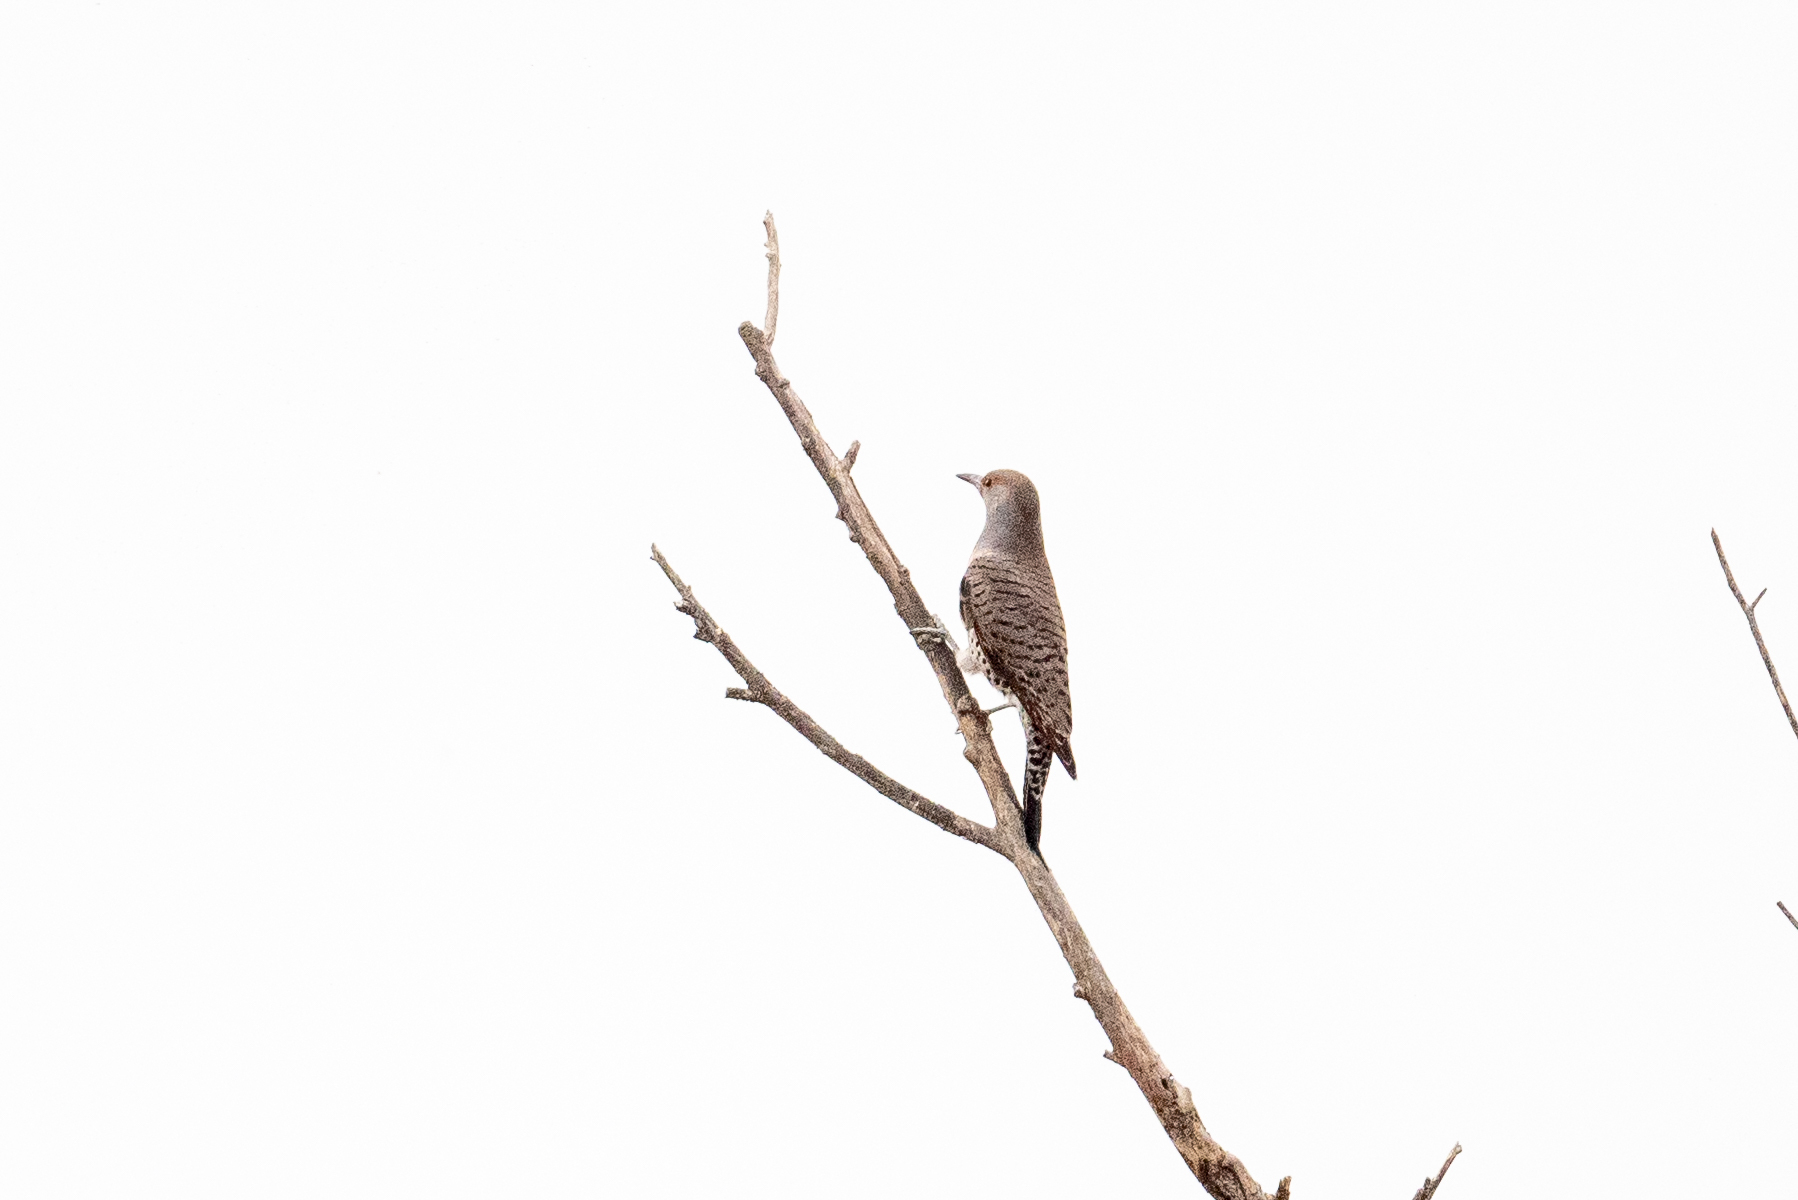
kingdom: Animalia
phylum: Chordata
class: Aves
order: Piciformes
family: Picidae
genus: Colaptes
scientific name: Colaptes auratus
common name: Northern flicker
